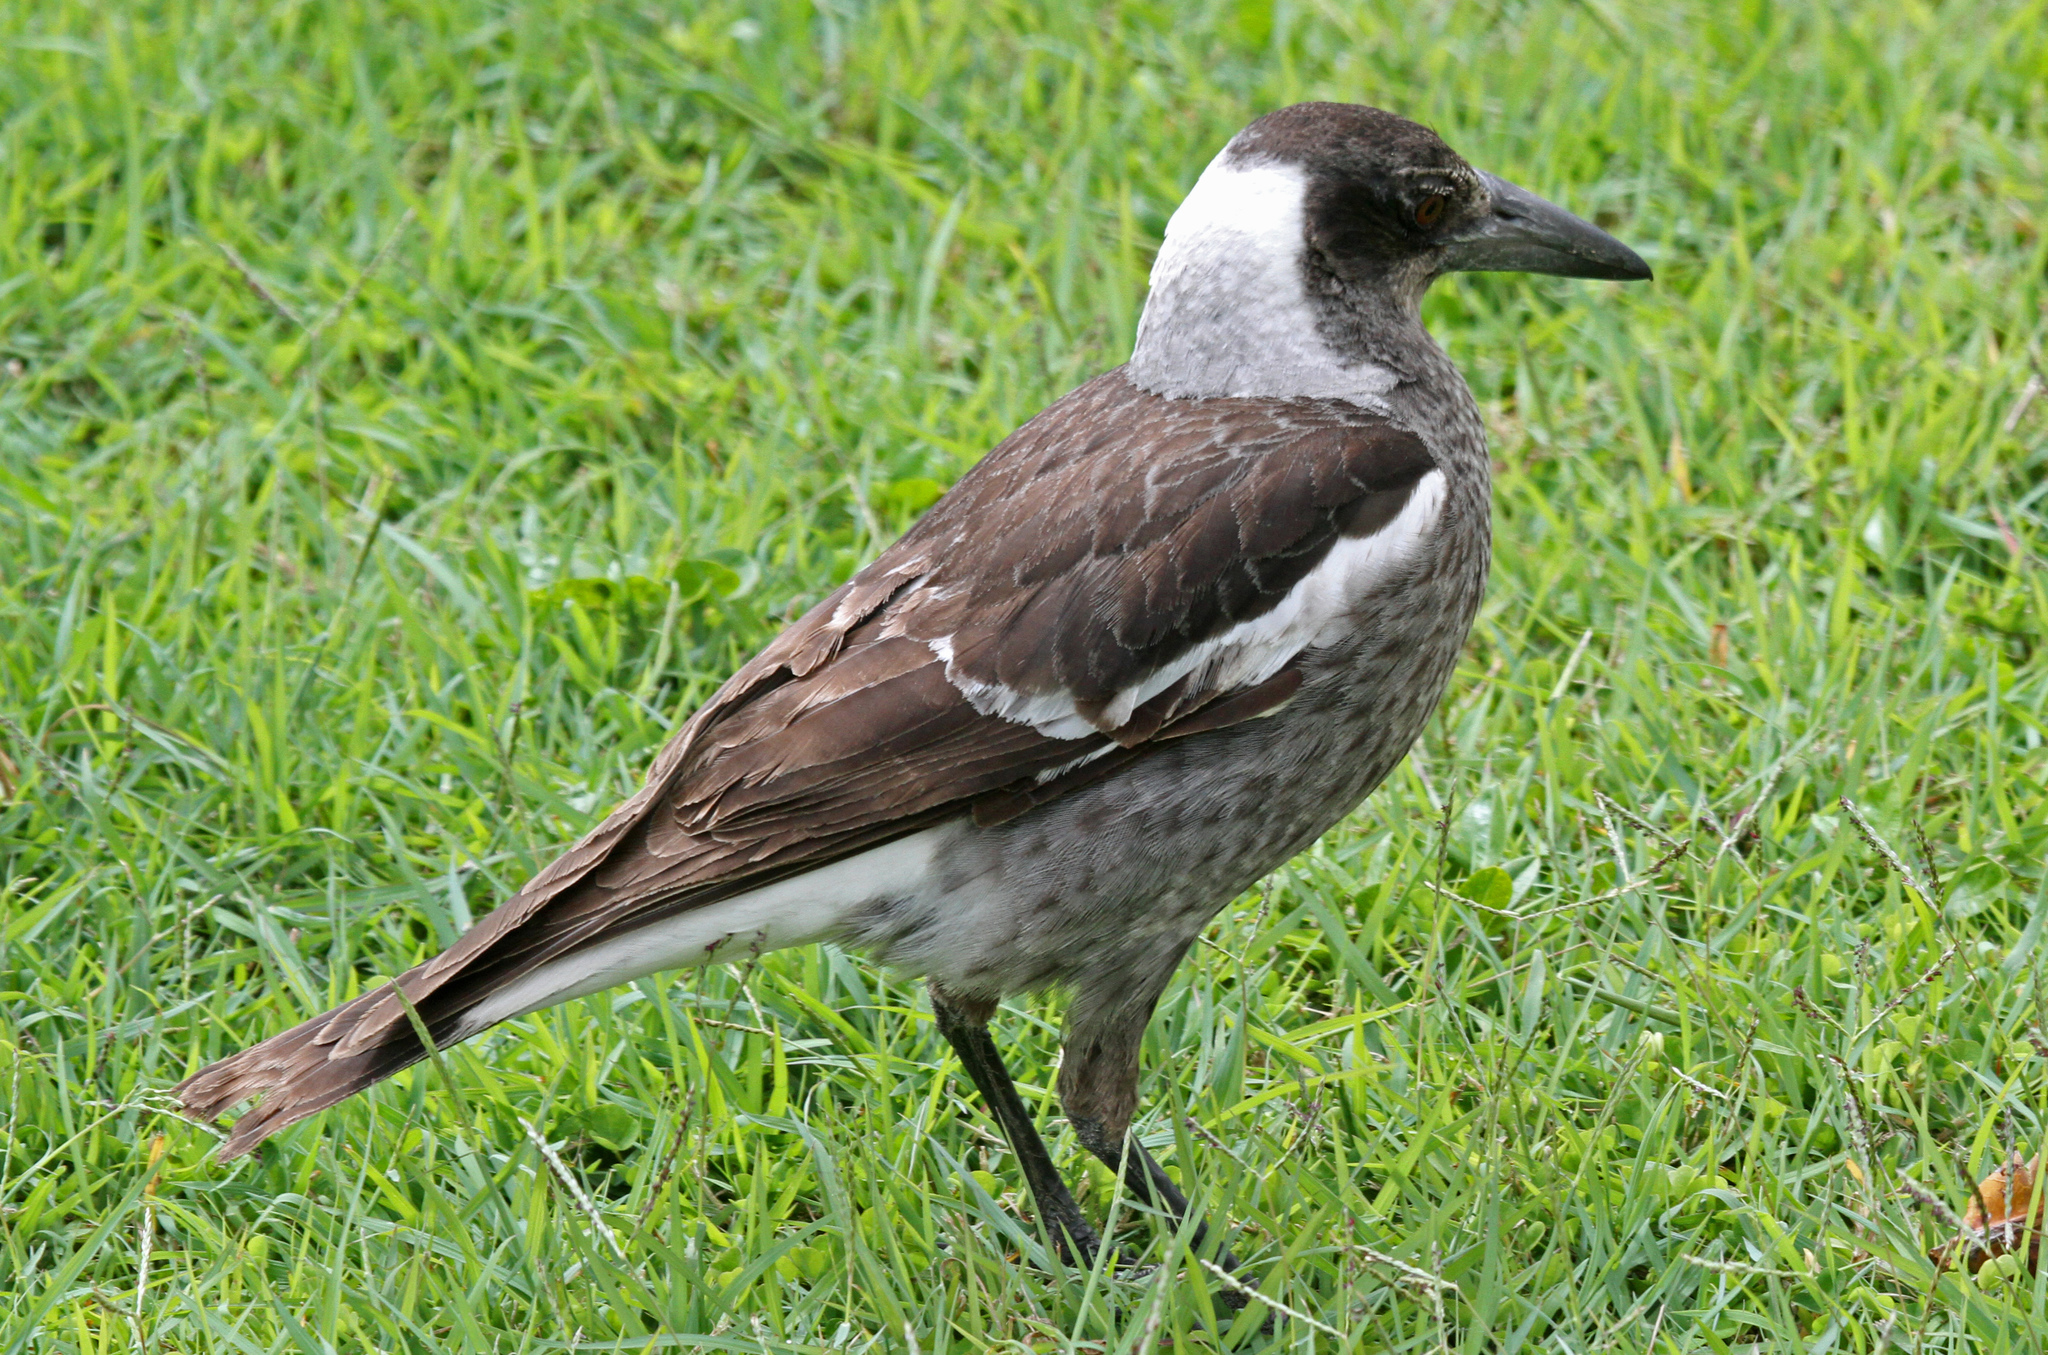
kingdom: Animalia
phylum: Chordata
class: Aves
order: Passeriformes
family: Cracticidae
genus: Gymnorhina
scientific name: Gymnorhina tibicen
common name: Australian magpie
